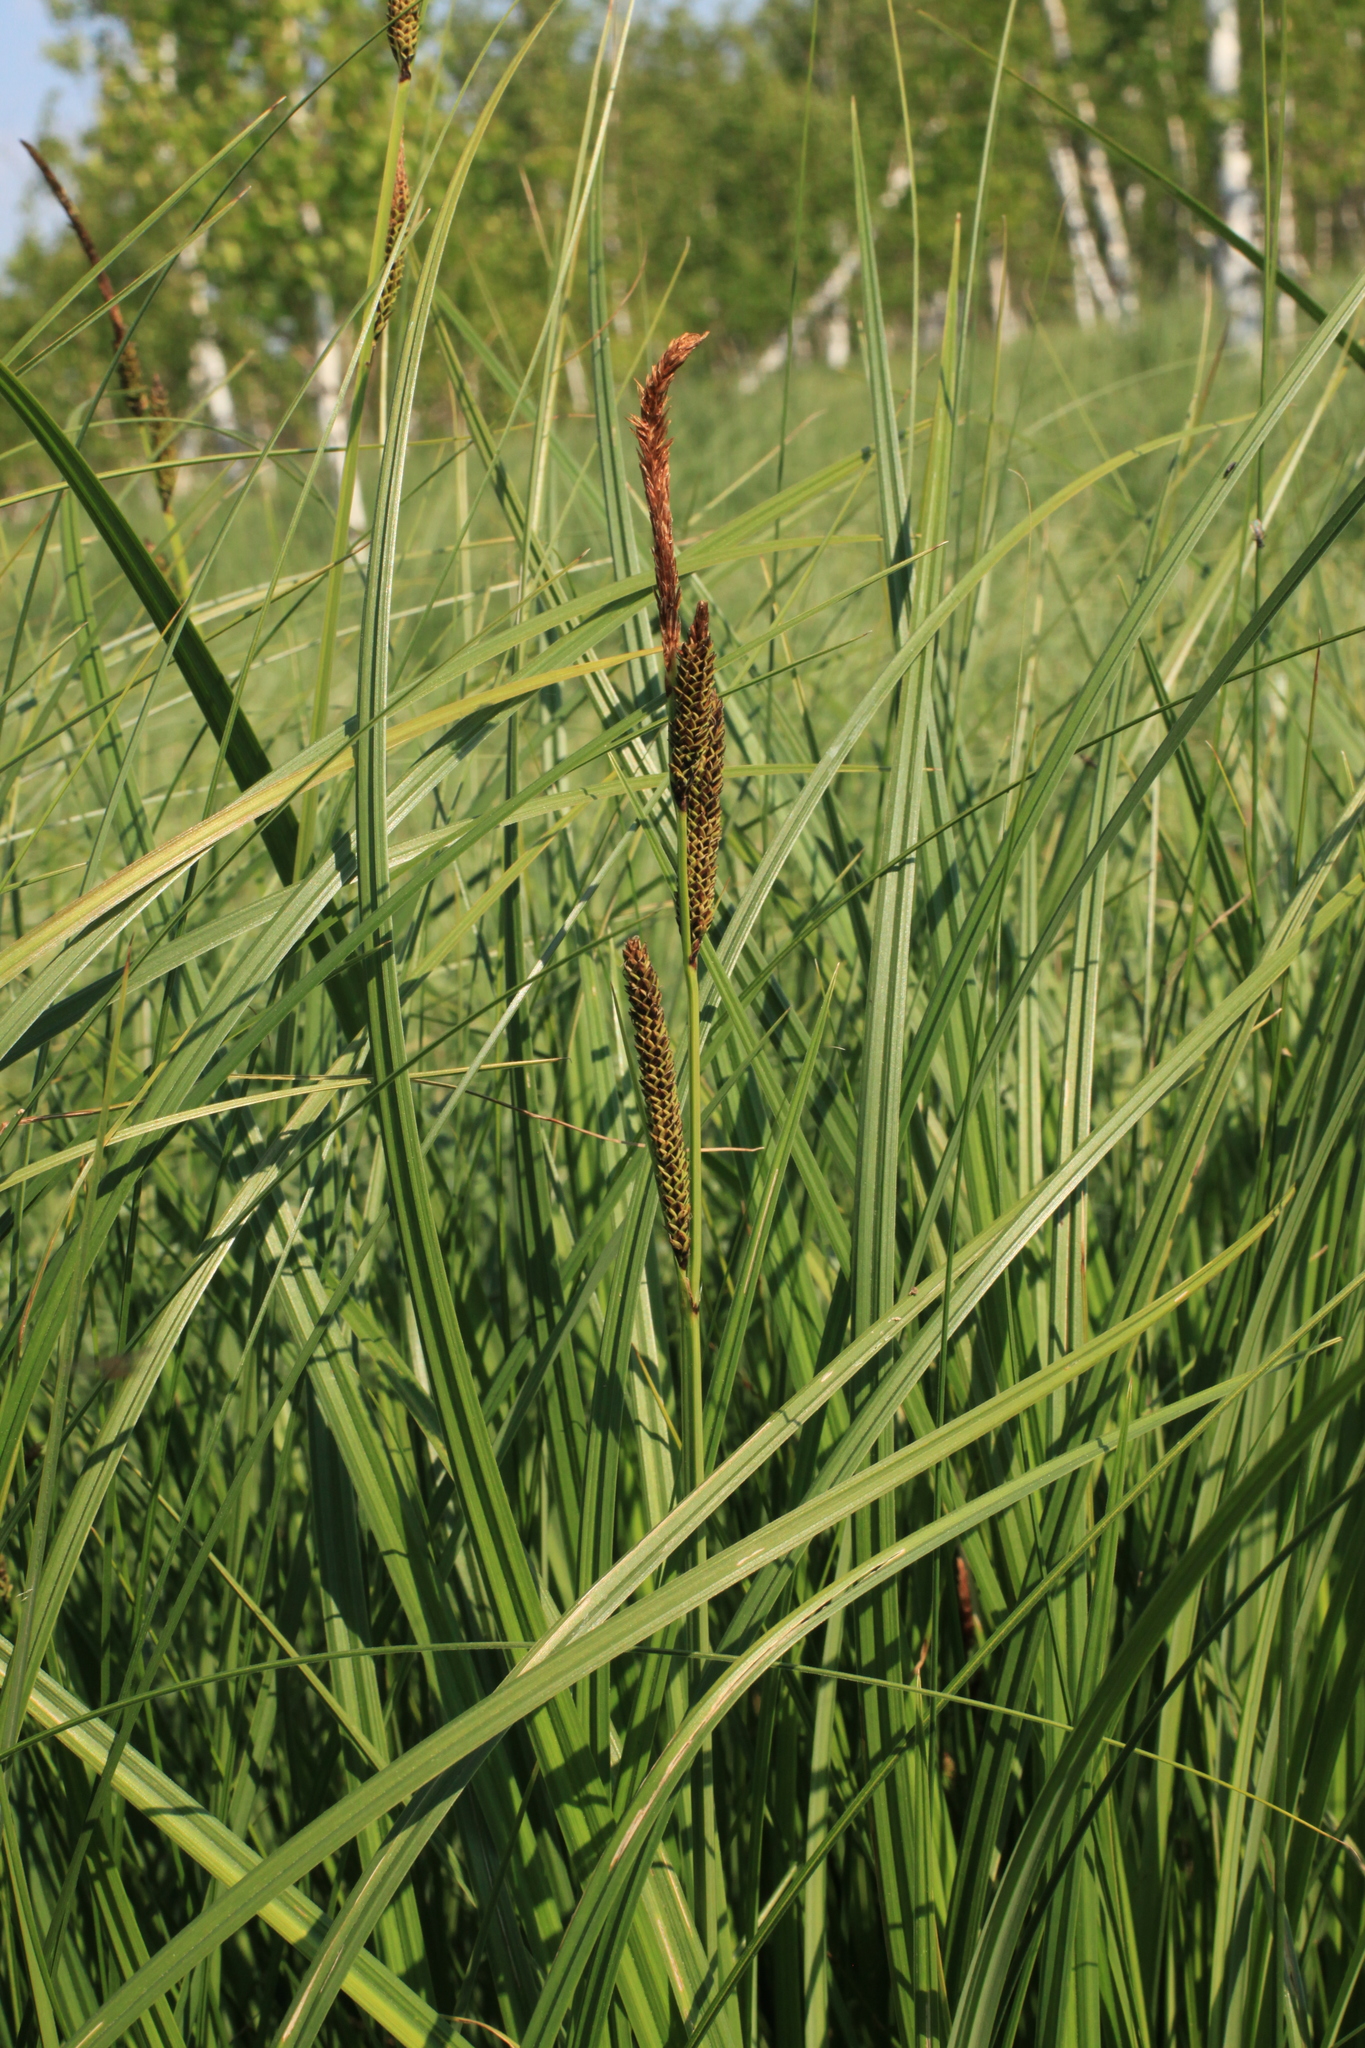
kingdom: Plantae
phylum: Tracheophyta
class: Liliopsida
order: Poales
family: Cyperaceae
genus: Carex
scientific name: Carex elata
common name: Tufted sedge
